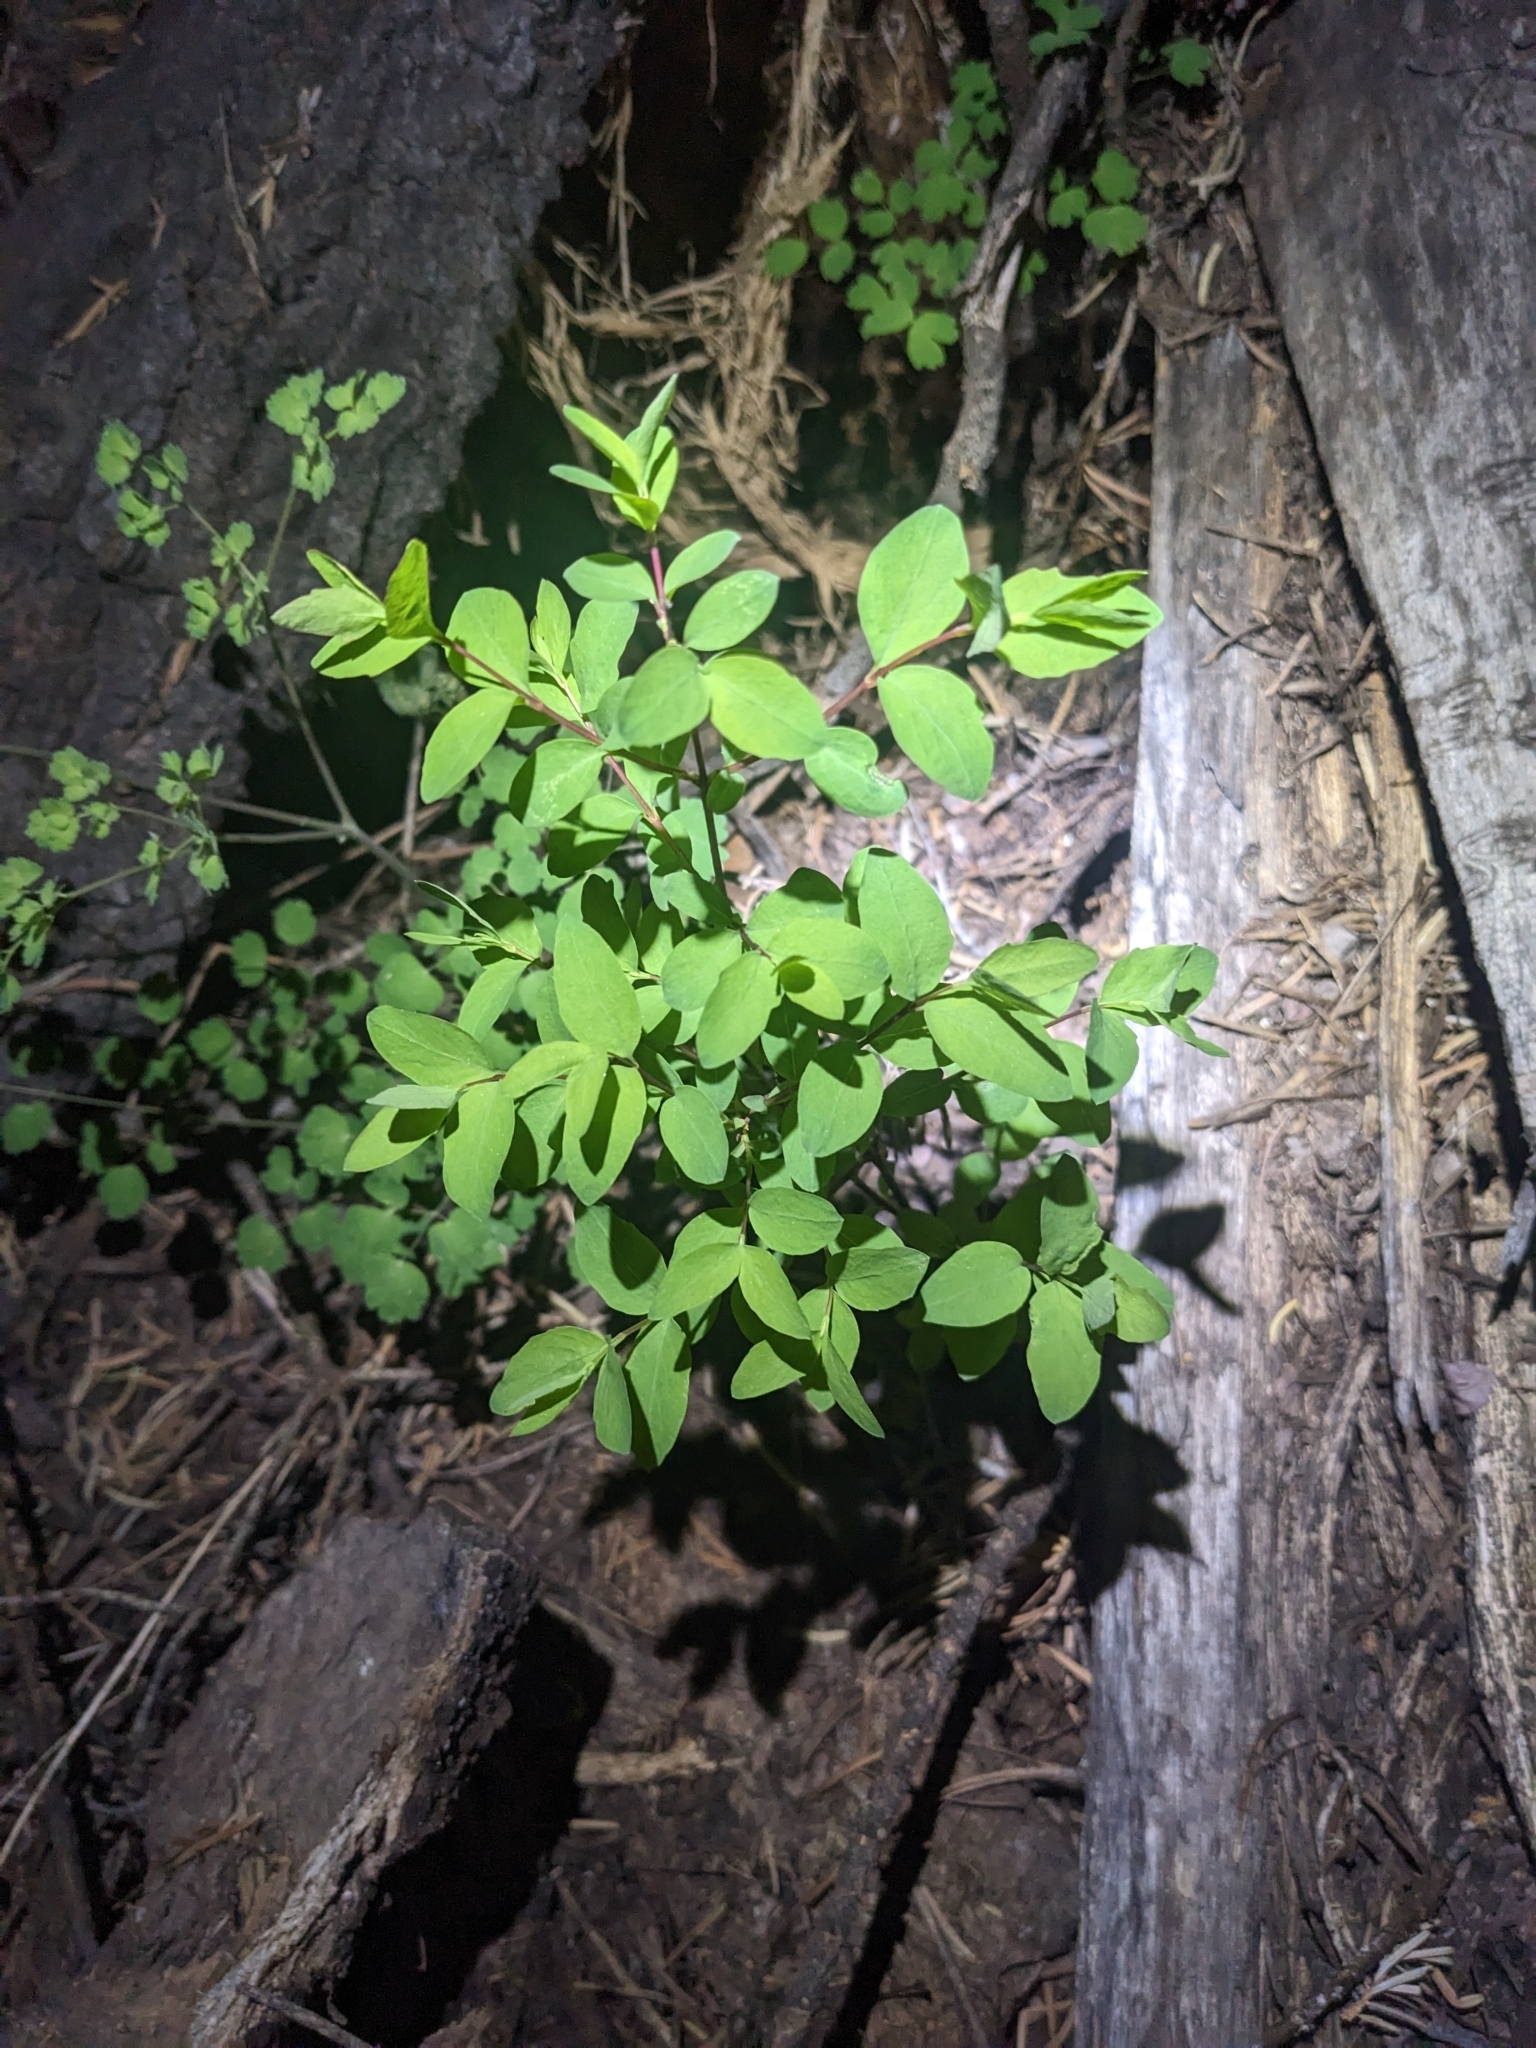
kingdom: Plantae
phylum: Tracheophyta
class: Magnoliopsida
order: Dipsacales
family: Caprifoliaceae
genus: Symphoricarpos
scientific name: Symphoricarpos rotundifolius
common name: Round-leaved snowberry
